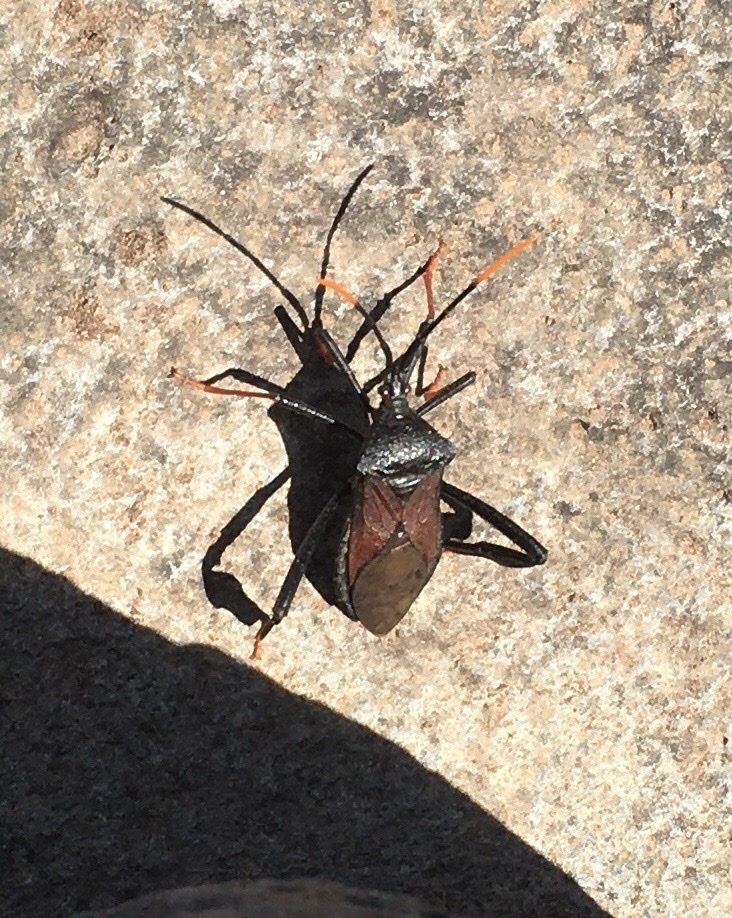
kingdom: Animalia
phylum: Arthropoda
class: Insecta
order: Hemiptera
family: Coreidae
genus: Acanthocephala
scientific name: Acanthocephala thomasi
